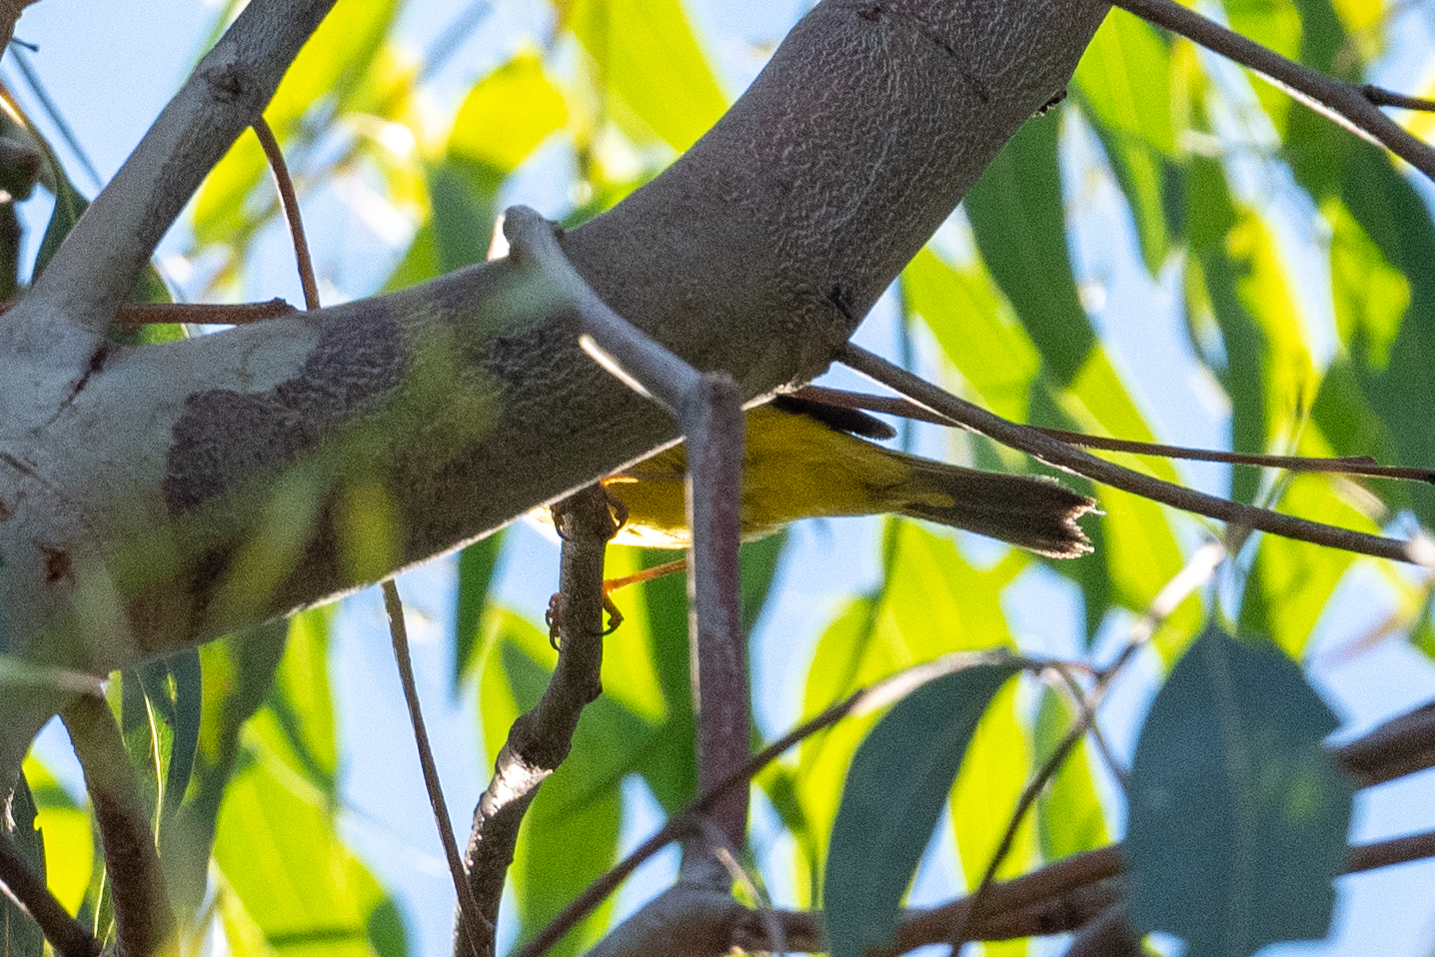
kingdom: Animalia
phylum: Chordata
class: Aves
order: Passeriformes
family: Parulidae
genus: Cardellina
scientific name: Cardellina pusilla
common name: Wilson's warbler
